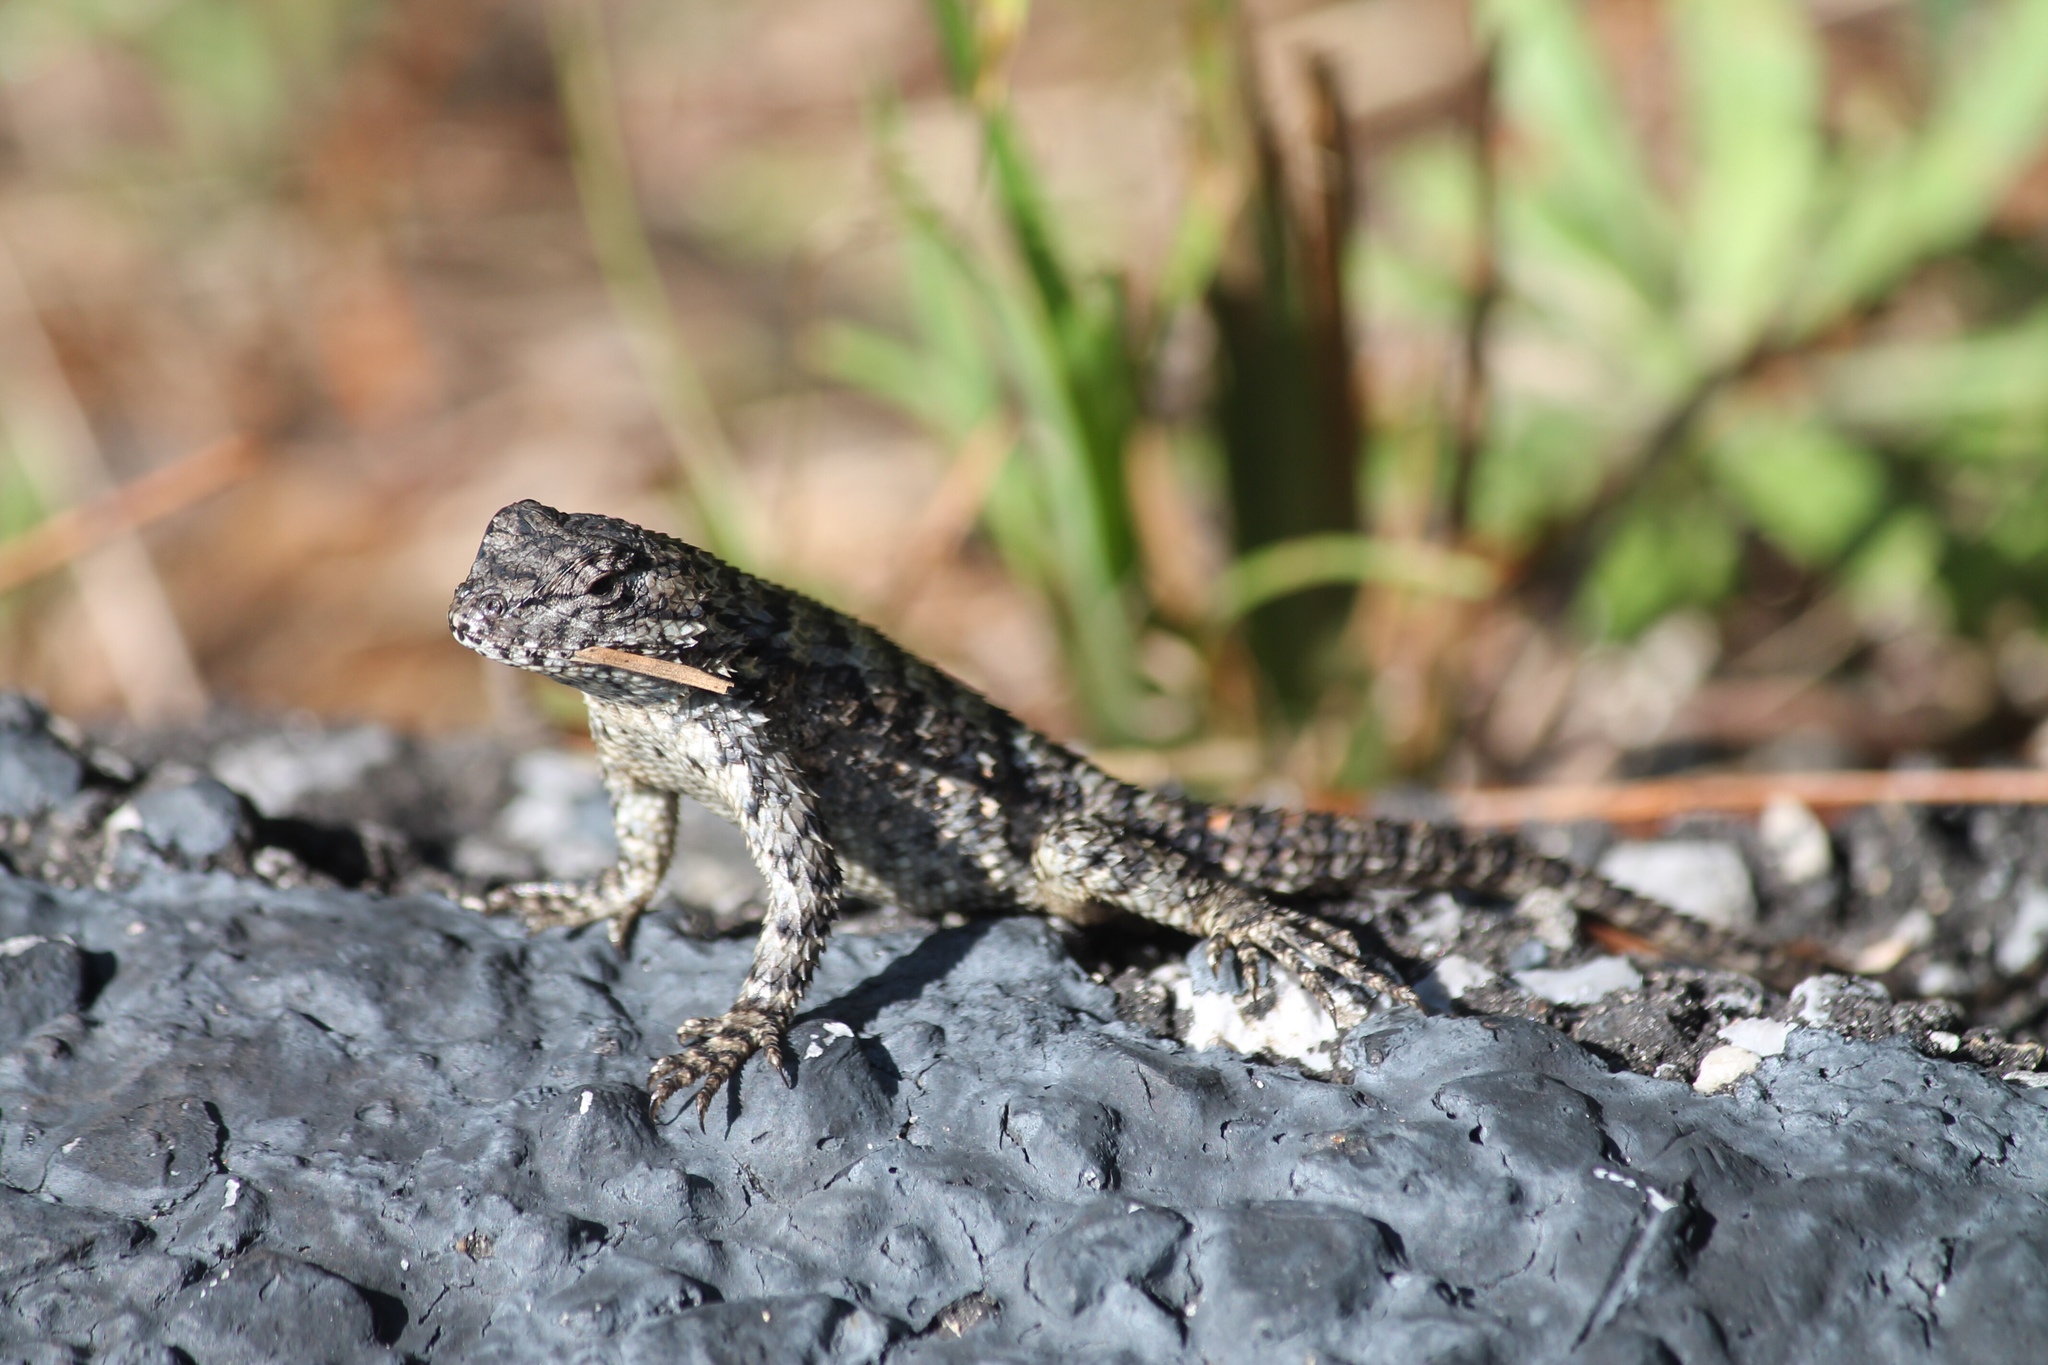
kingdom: Animalia
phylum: Chordata
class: Squamata
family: Phrynosomatidae
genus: Sceloporus
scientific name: Sceloporus undulatus
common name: Eastern fence lizard
